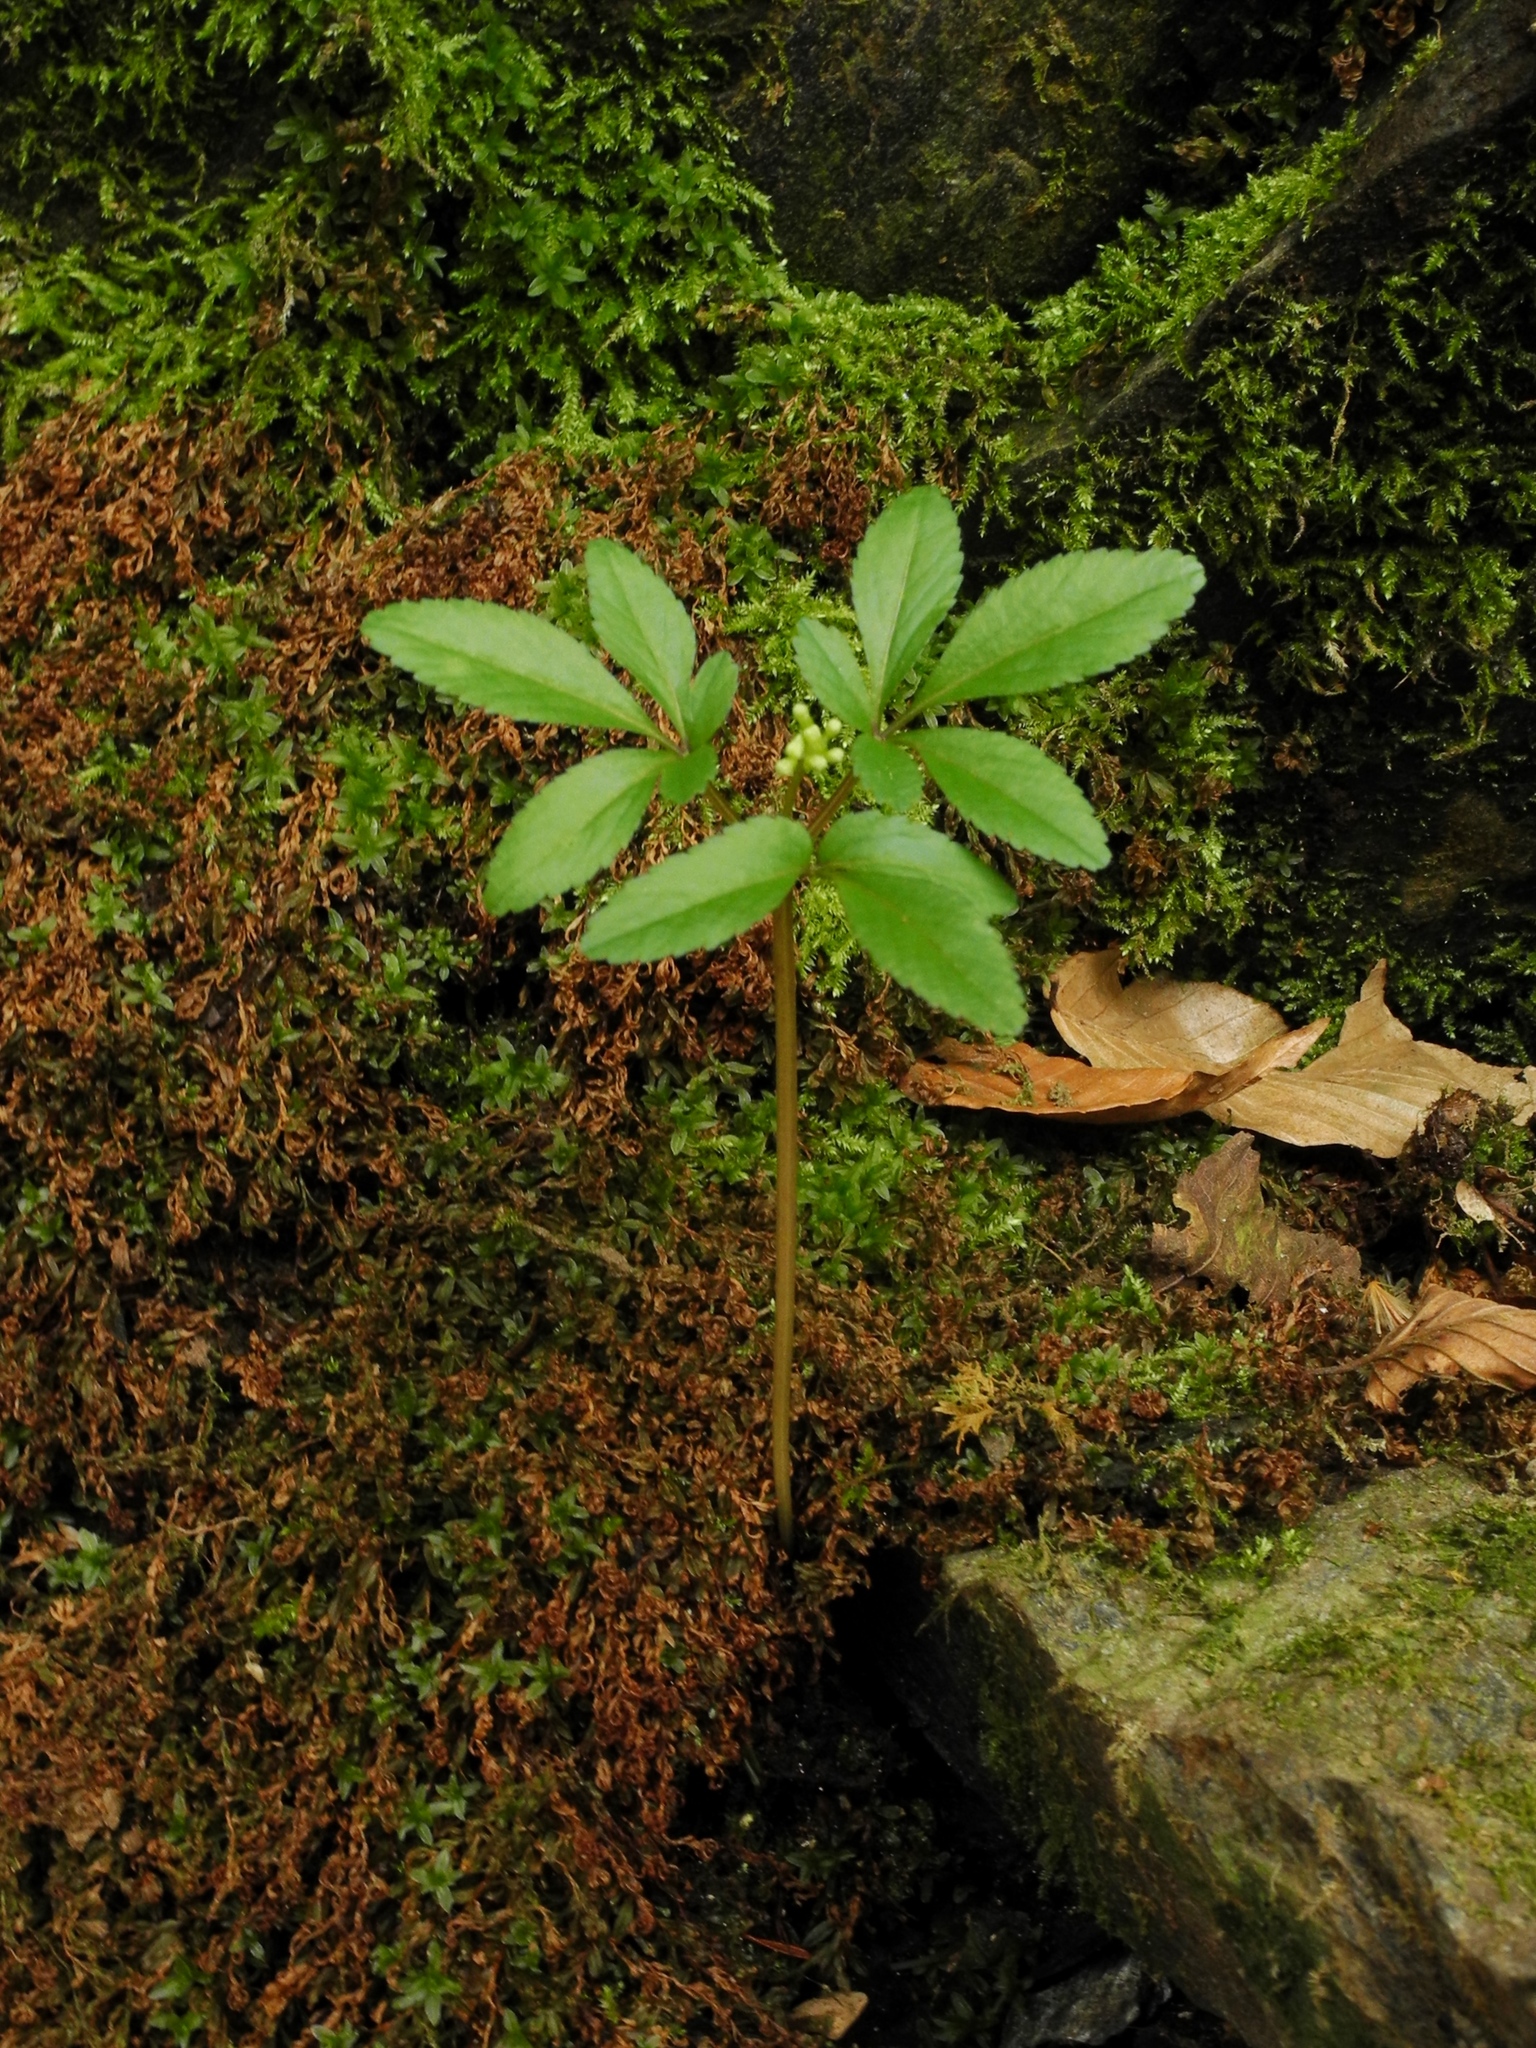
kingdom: Plantae
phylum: Tracheophyta
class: Magnoliopsida
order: Apiales
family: Araliaceae
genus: Panax
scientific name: Panax trifolius
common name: Dwarf ginseng
